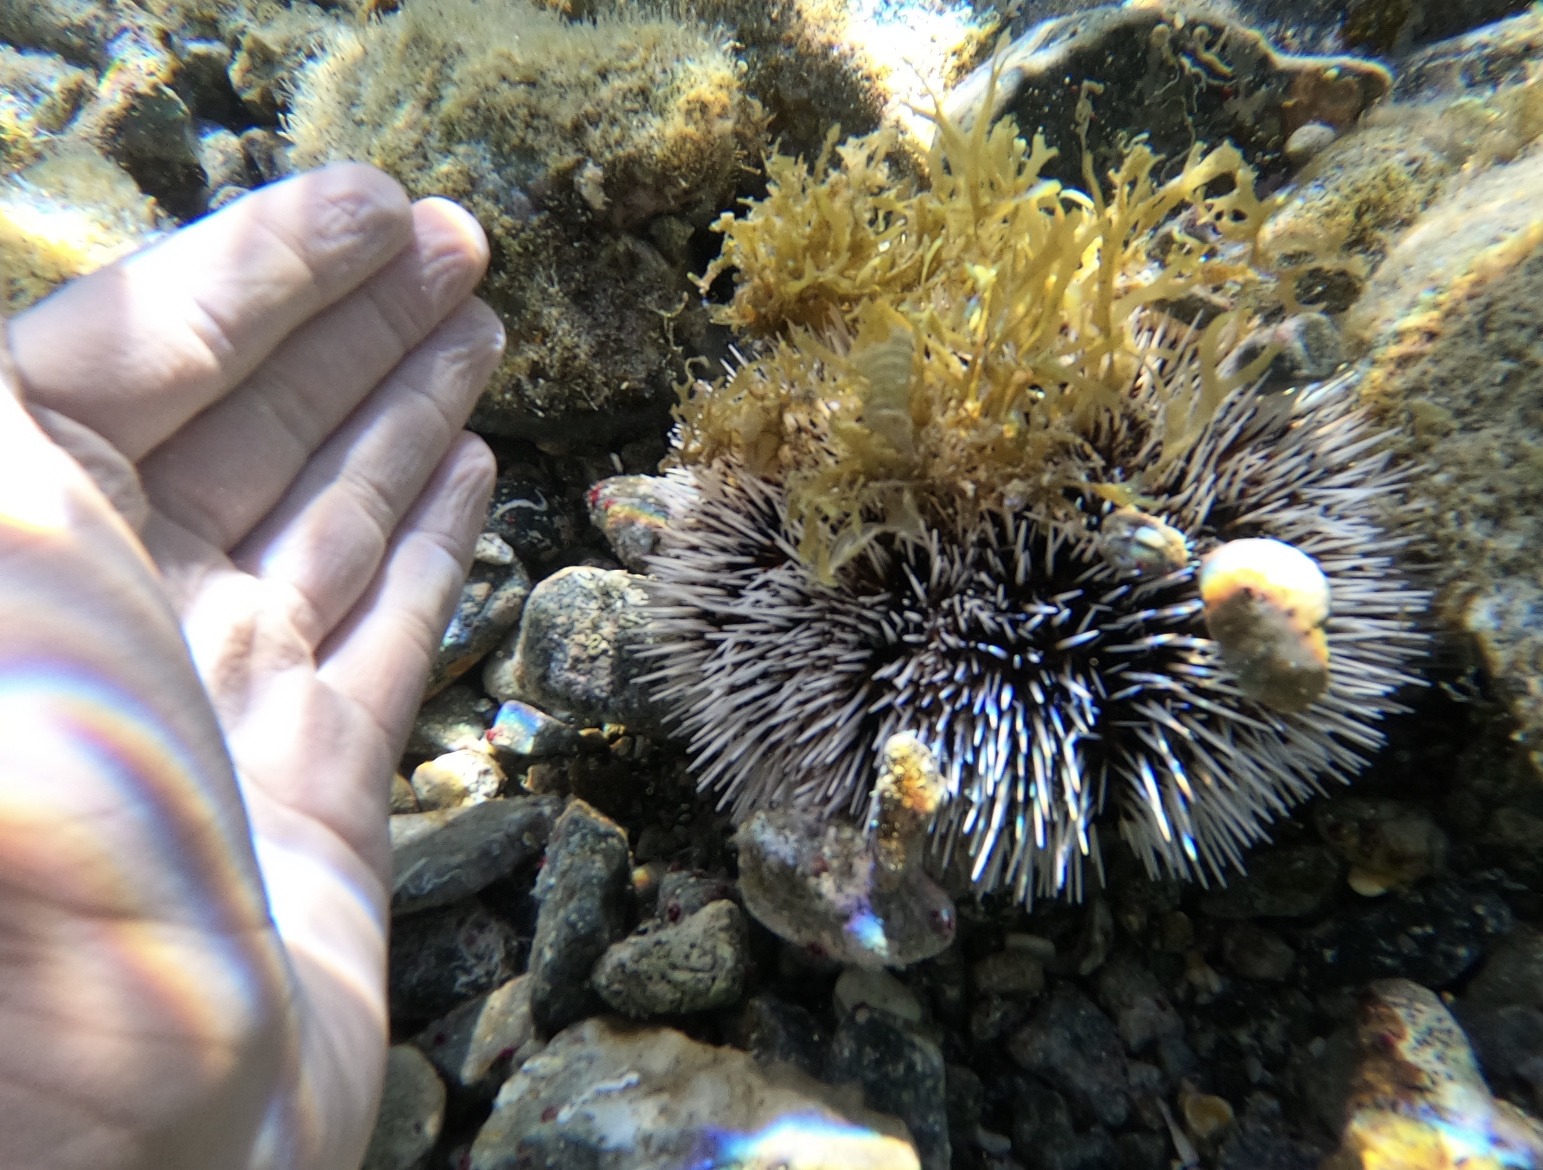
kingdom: Animalia
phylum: Echinodermata
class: Echinoidea
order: Camarodonta
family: Toxopneustidae
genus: Tripneustes
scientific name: Tripneustes ventricosus
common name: West indian sea egg
